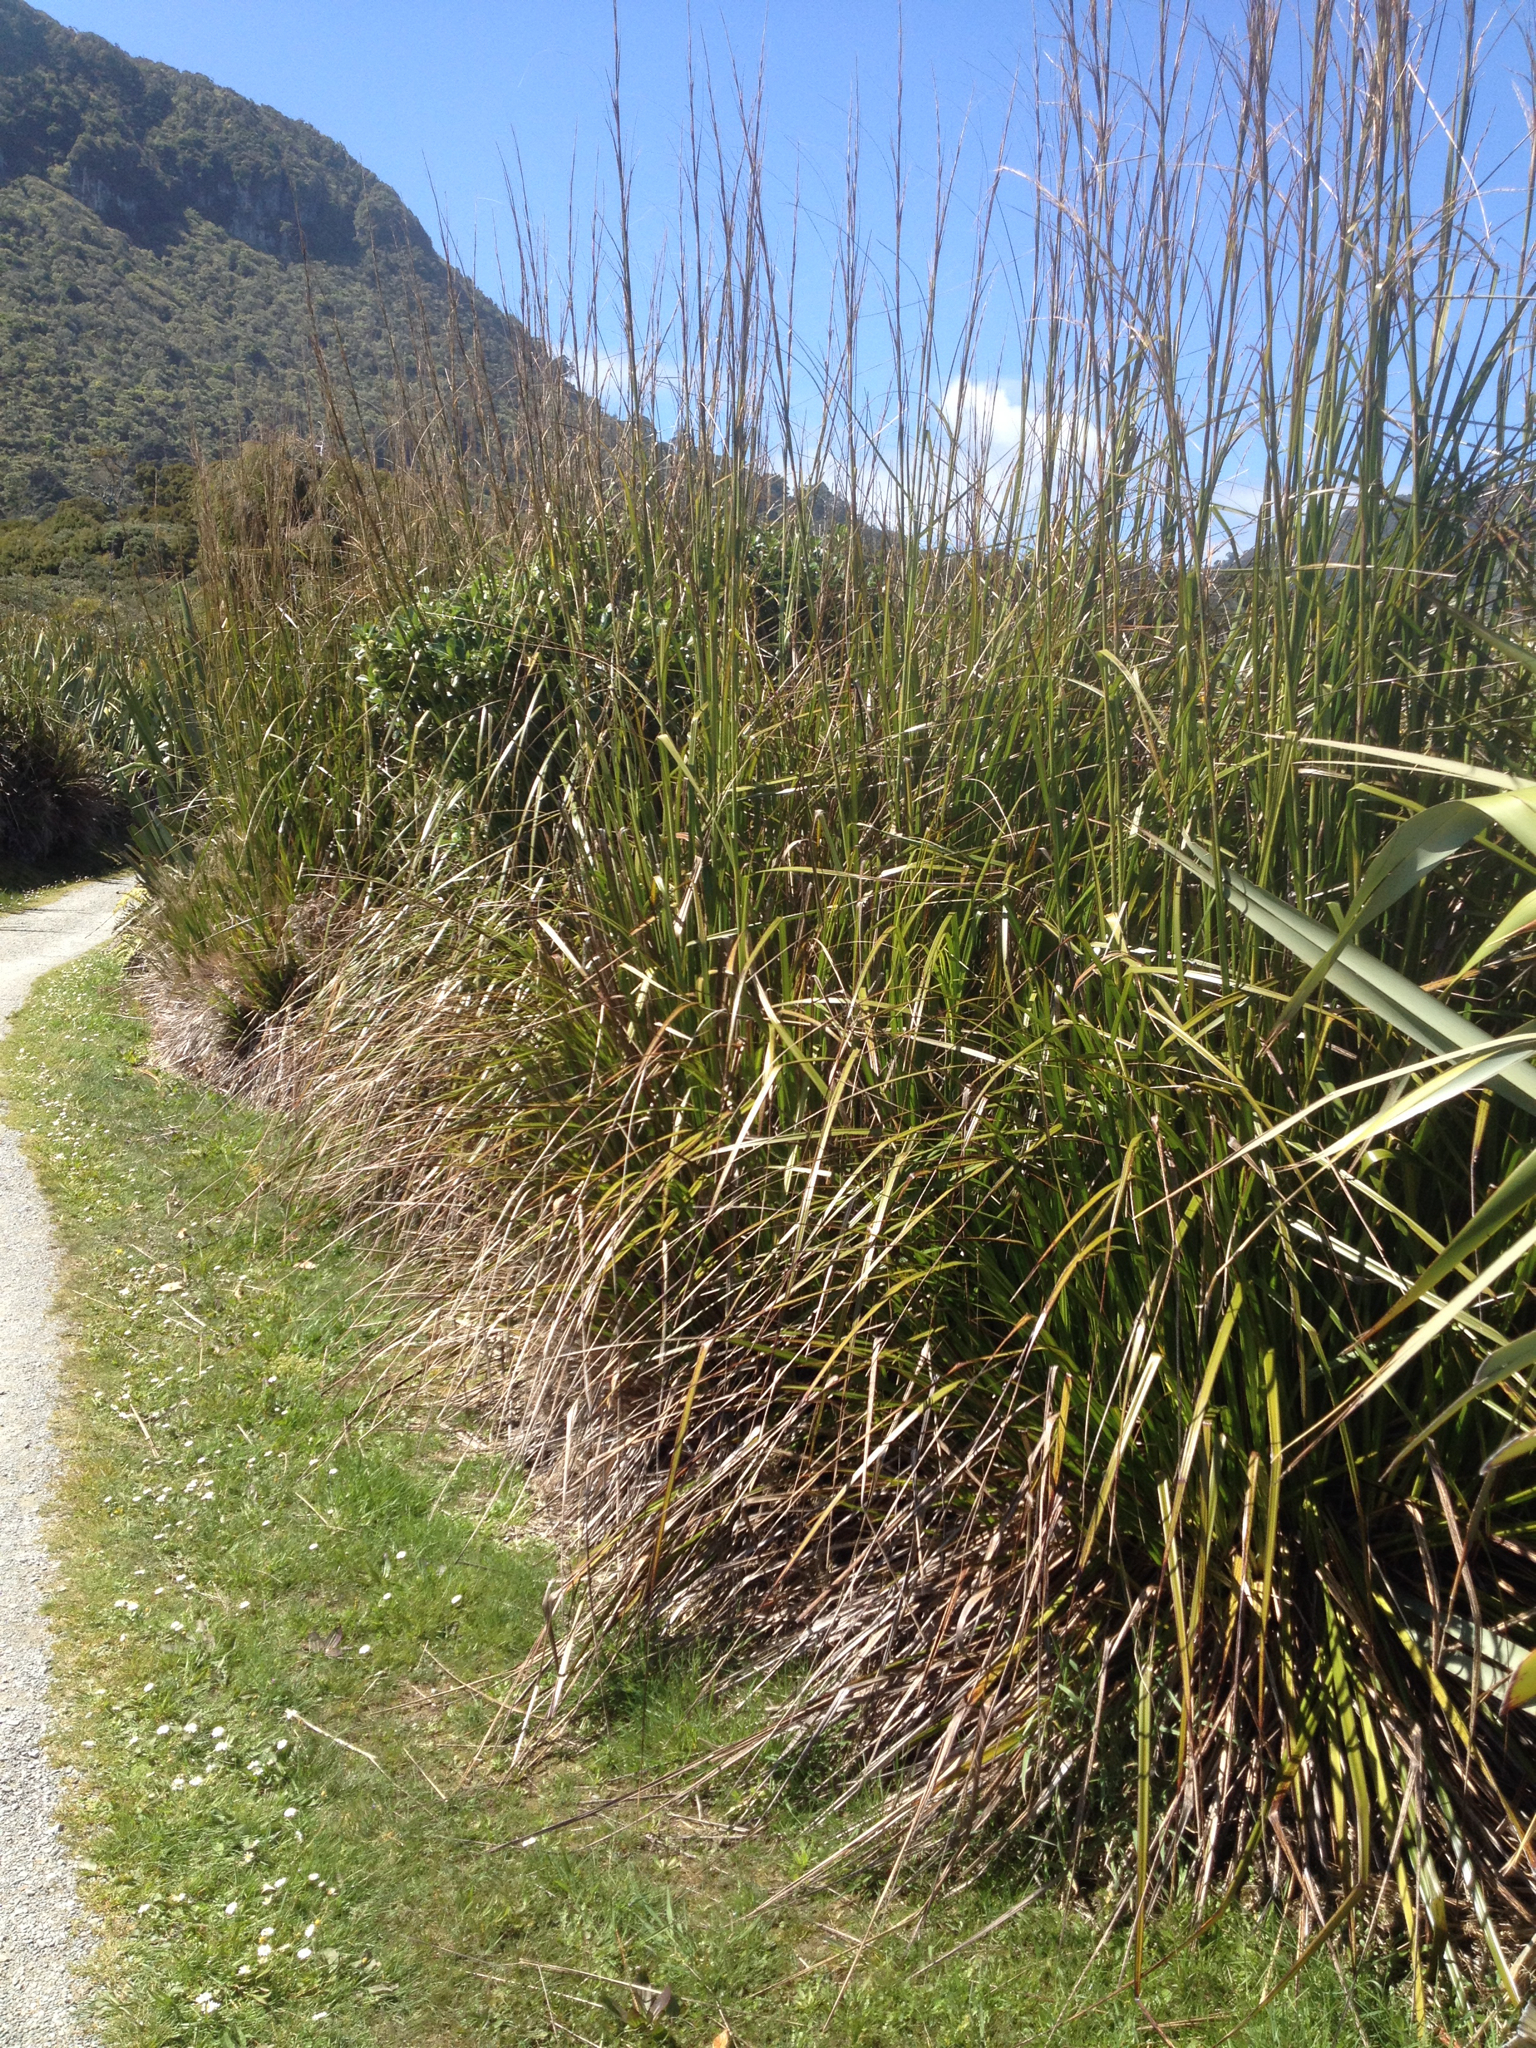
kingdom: Plantae
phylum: Tracheophyta
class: Liliopsida
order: Poales
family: Cyperaceae
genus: Gahnia
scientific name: Gahnia xanthocarpa
